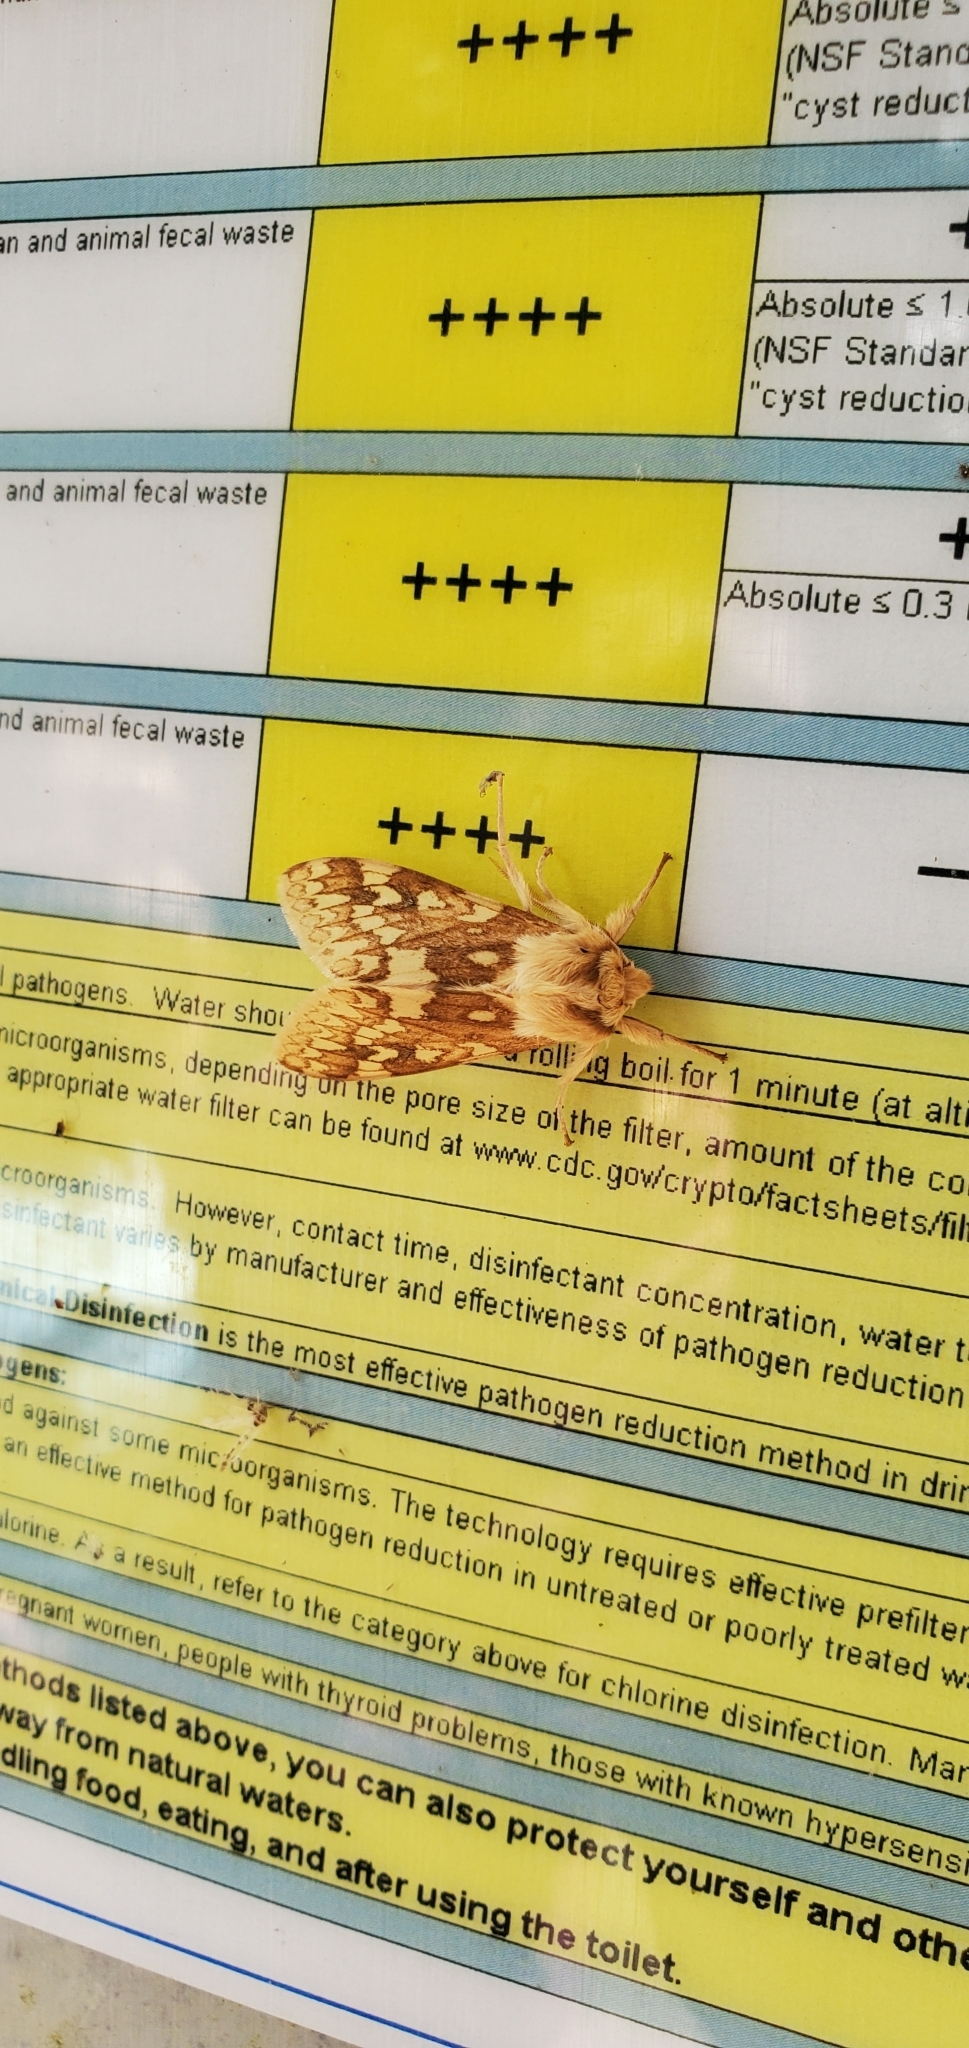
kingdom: Animalia
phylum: Arthropoda
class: Insecta
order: Lepidoptera
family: Erebidae
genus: Lophocampa
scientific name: Lophocampa maculata
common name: Spotted tussock moth
